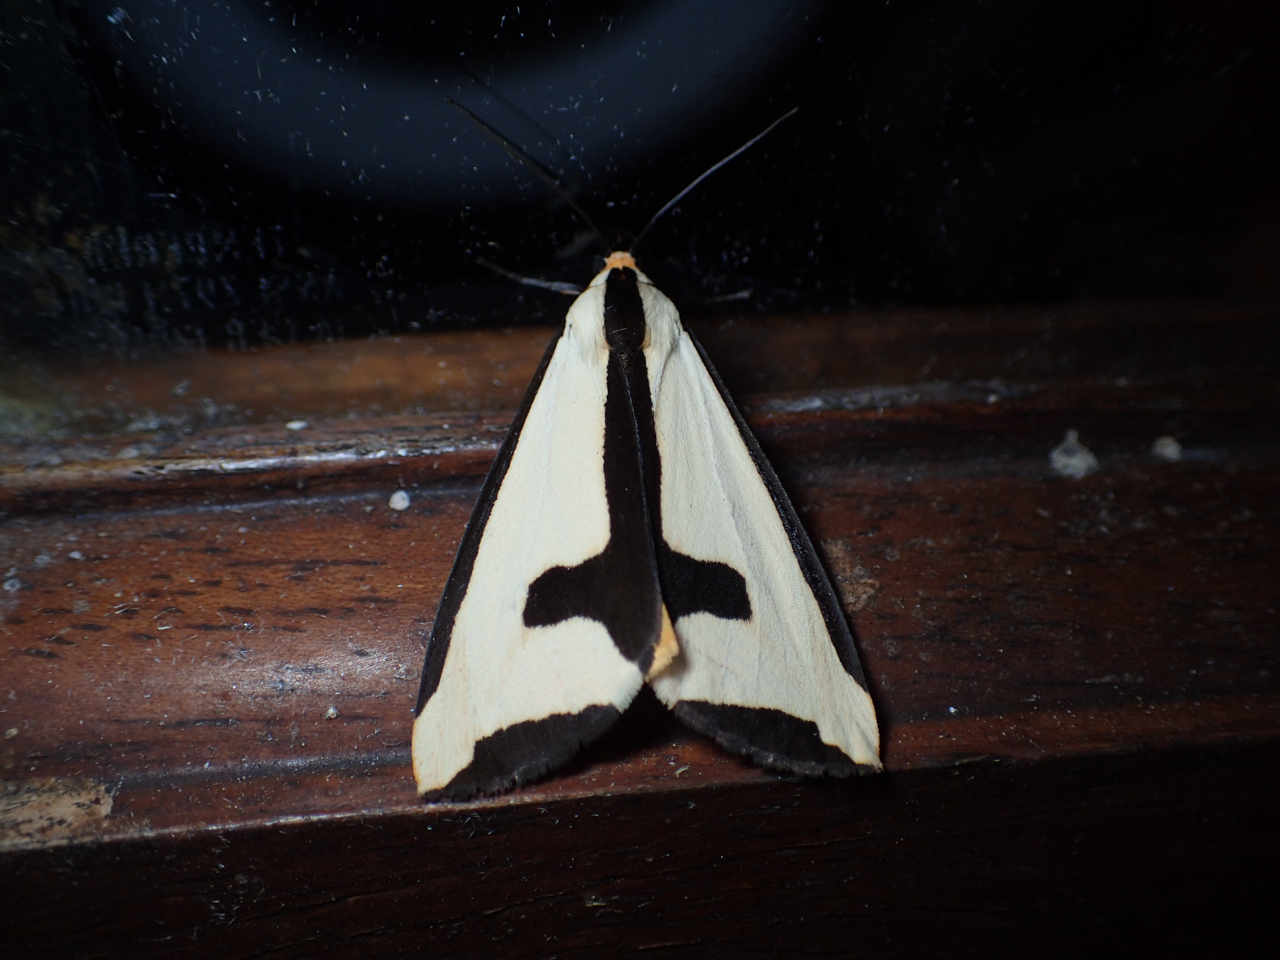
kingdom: Animalia
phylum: Arthropoda
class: Insecta
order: Lepidoptera
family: Erebidae
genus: Haploa
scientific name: Haploa clymene
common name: Clymene moth
